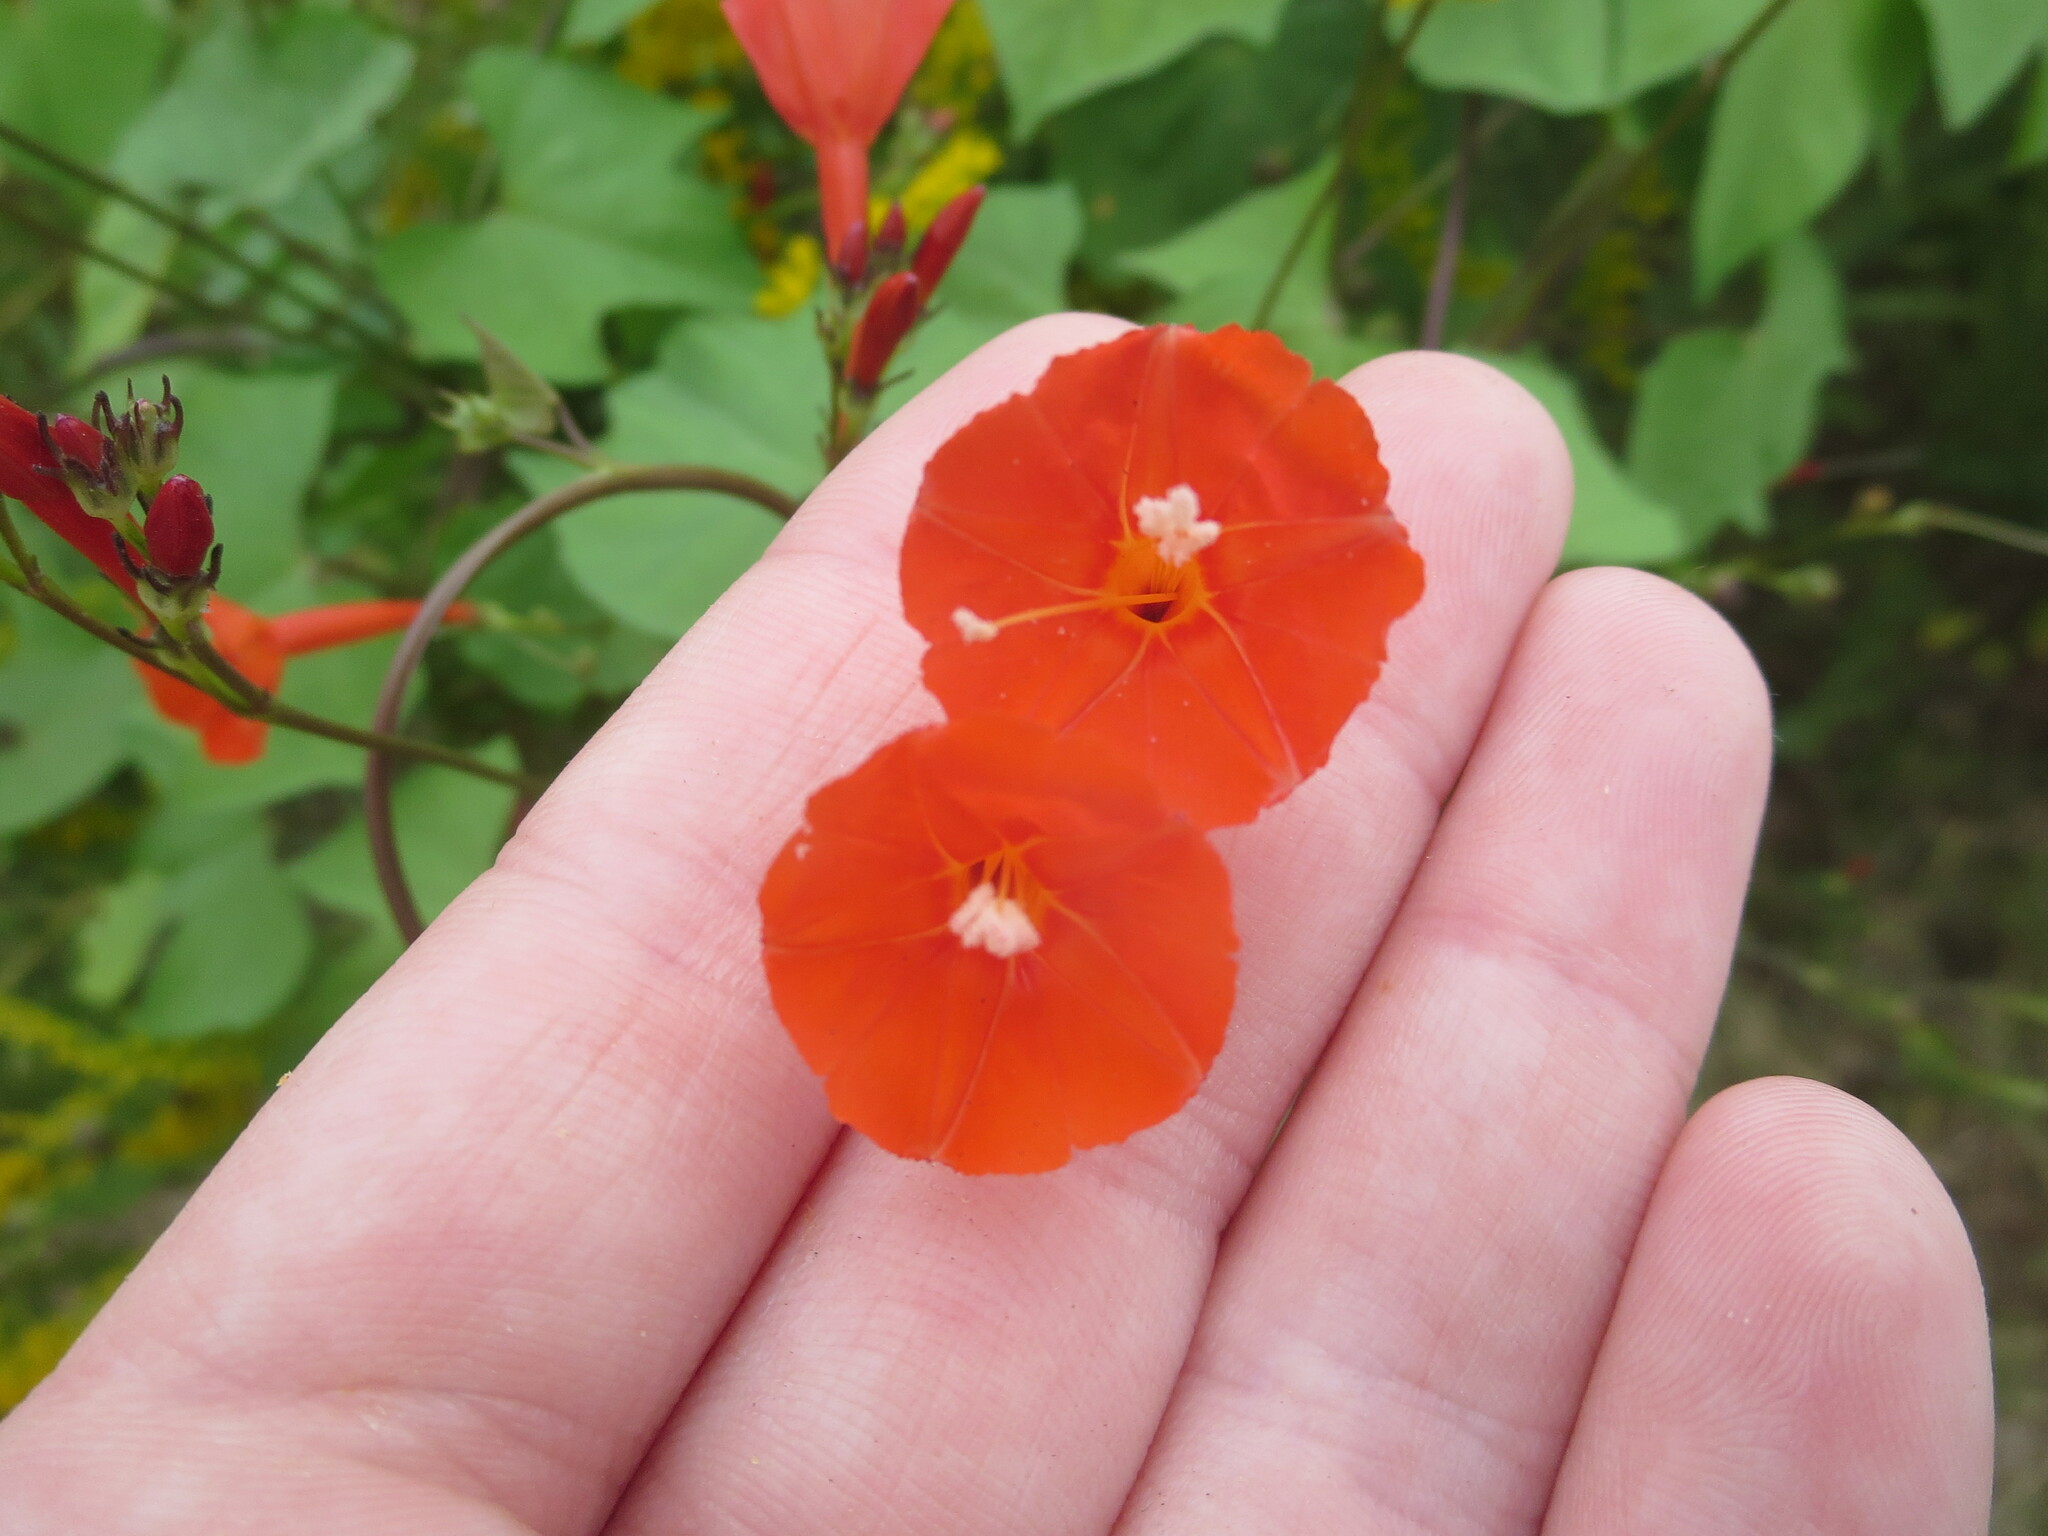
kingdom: Plantae
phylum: Tracheophyta
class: Magnoliopsida
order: Solanales
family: Convolvulaceae
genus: Ipomoea
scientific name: Ipomoea hederifolia
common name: Ivy-leaf morning-glory
